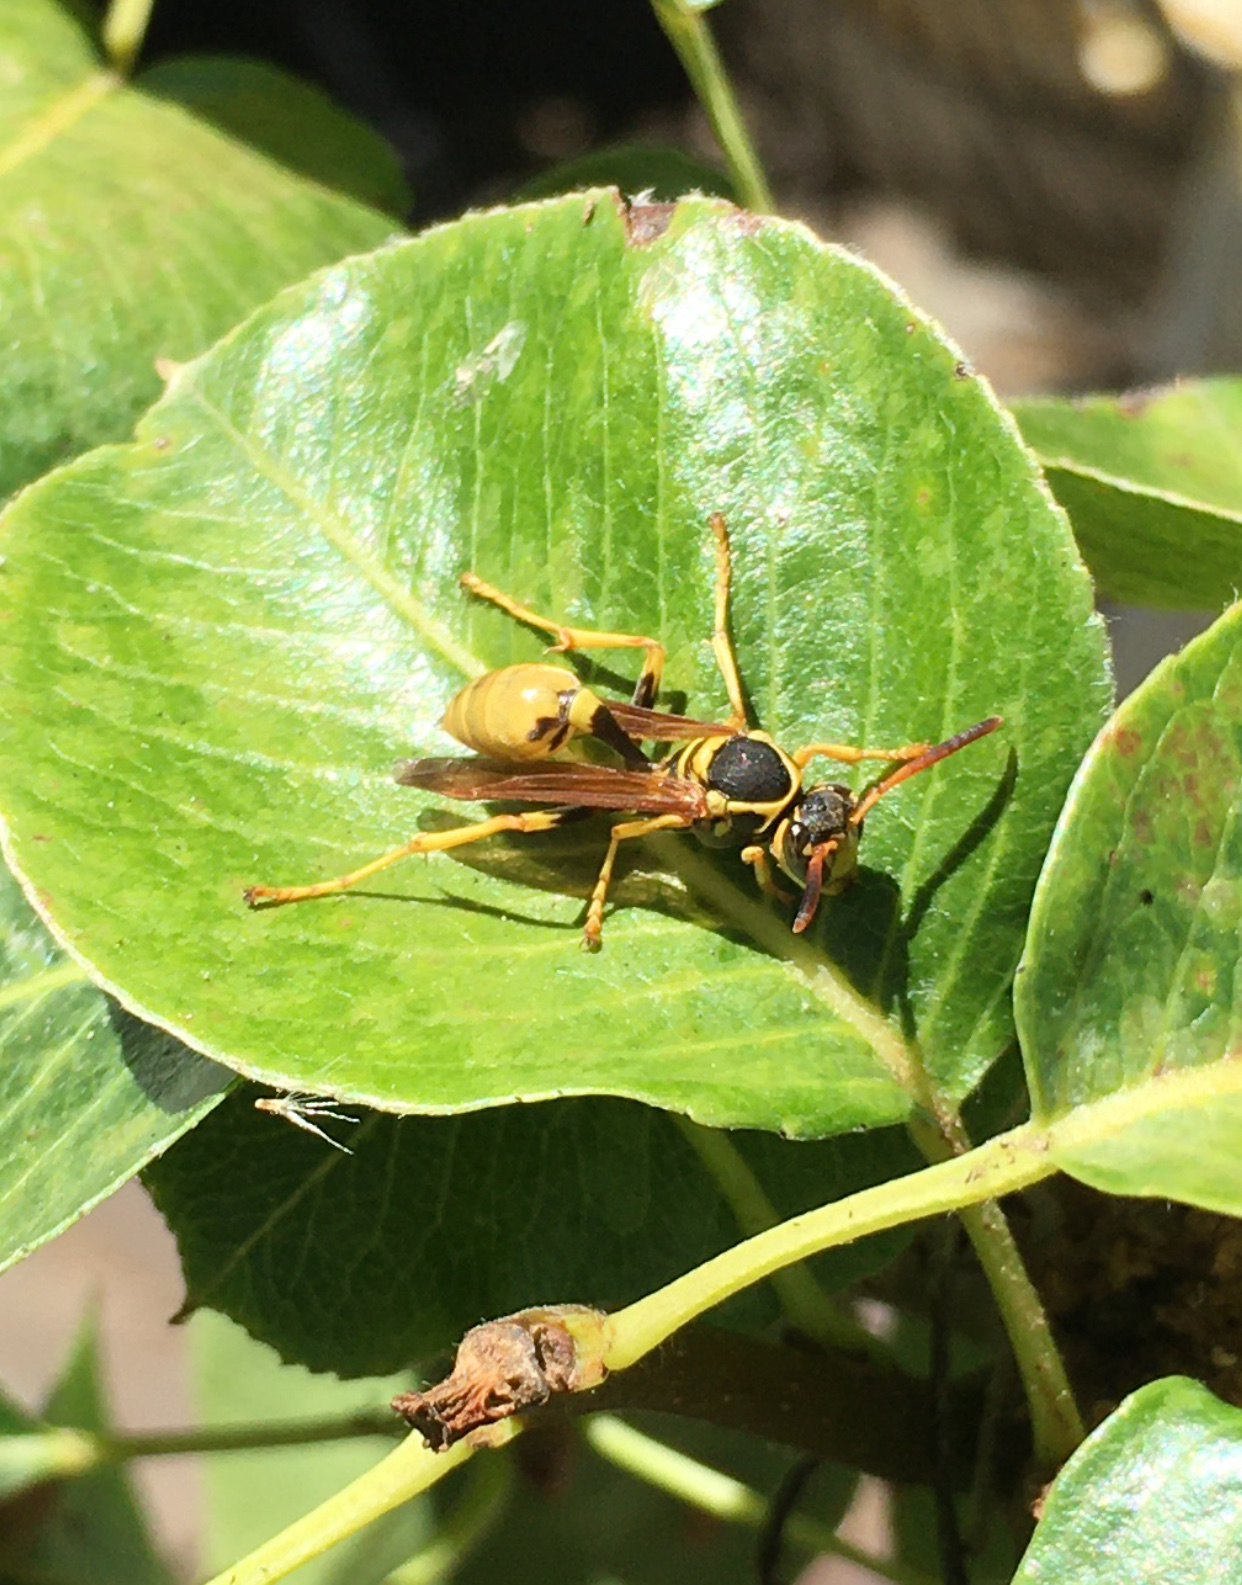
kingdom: Animalia
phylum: Arthropoda
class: Insecta
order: Hymenoptera
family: Vespidae
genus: Mischocyttarus
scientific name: Mischocyttarus flavitarsis
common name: Wasp
